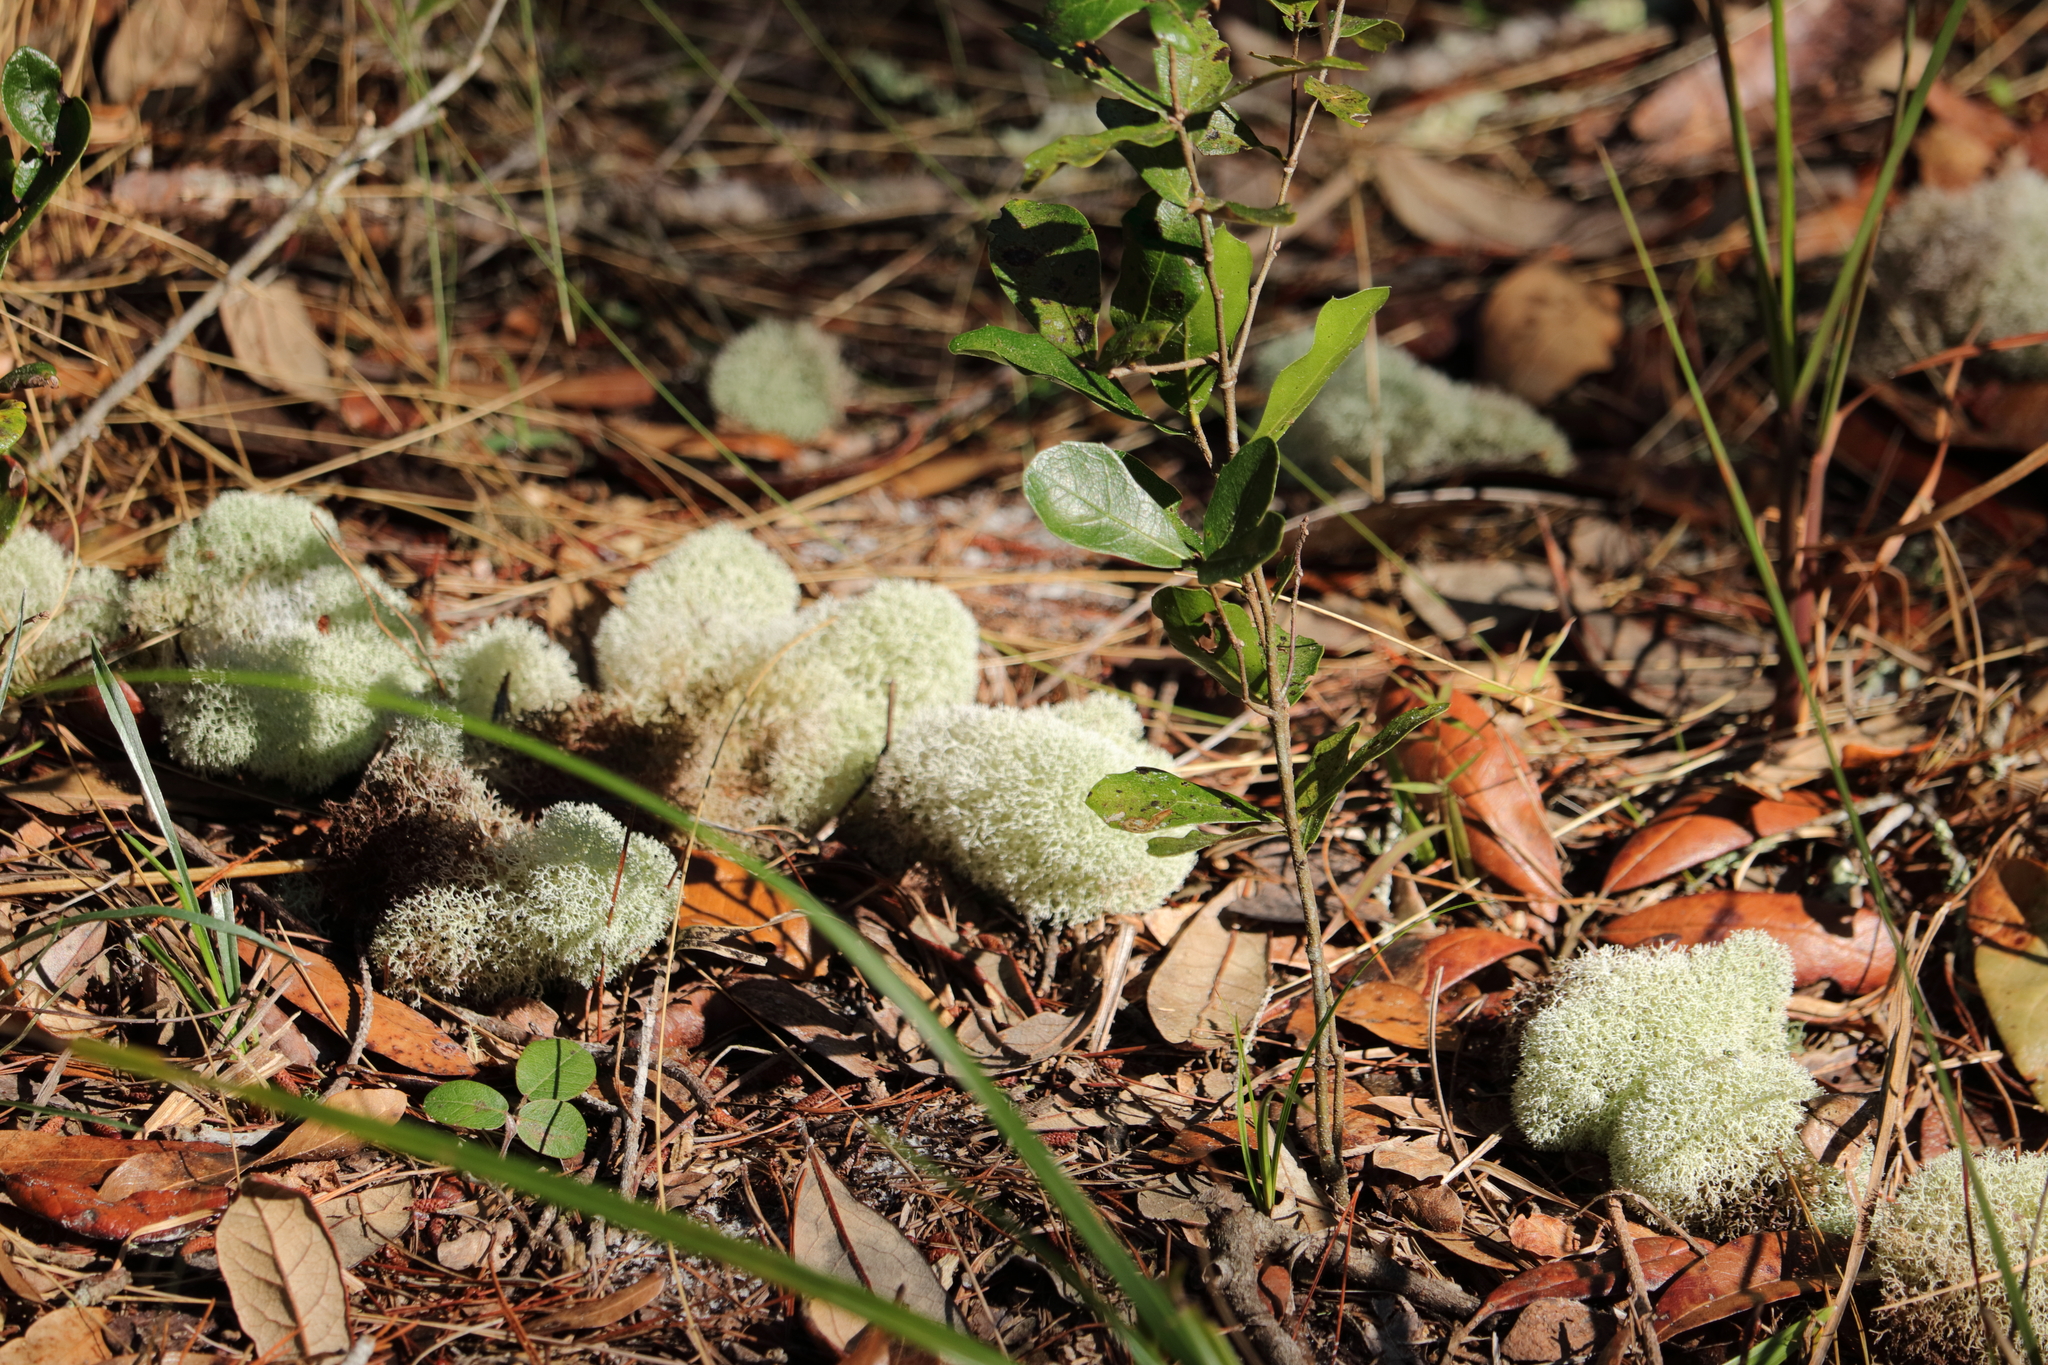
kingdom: Fungi
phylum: Ascomycota
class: Lecanoromycetes
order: Lecanorales
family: Cladoniaceae
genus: Cladonia
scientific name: Cladonia evansii
